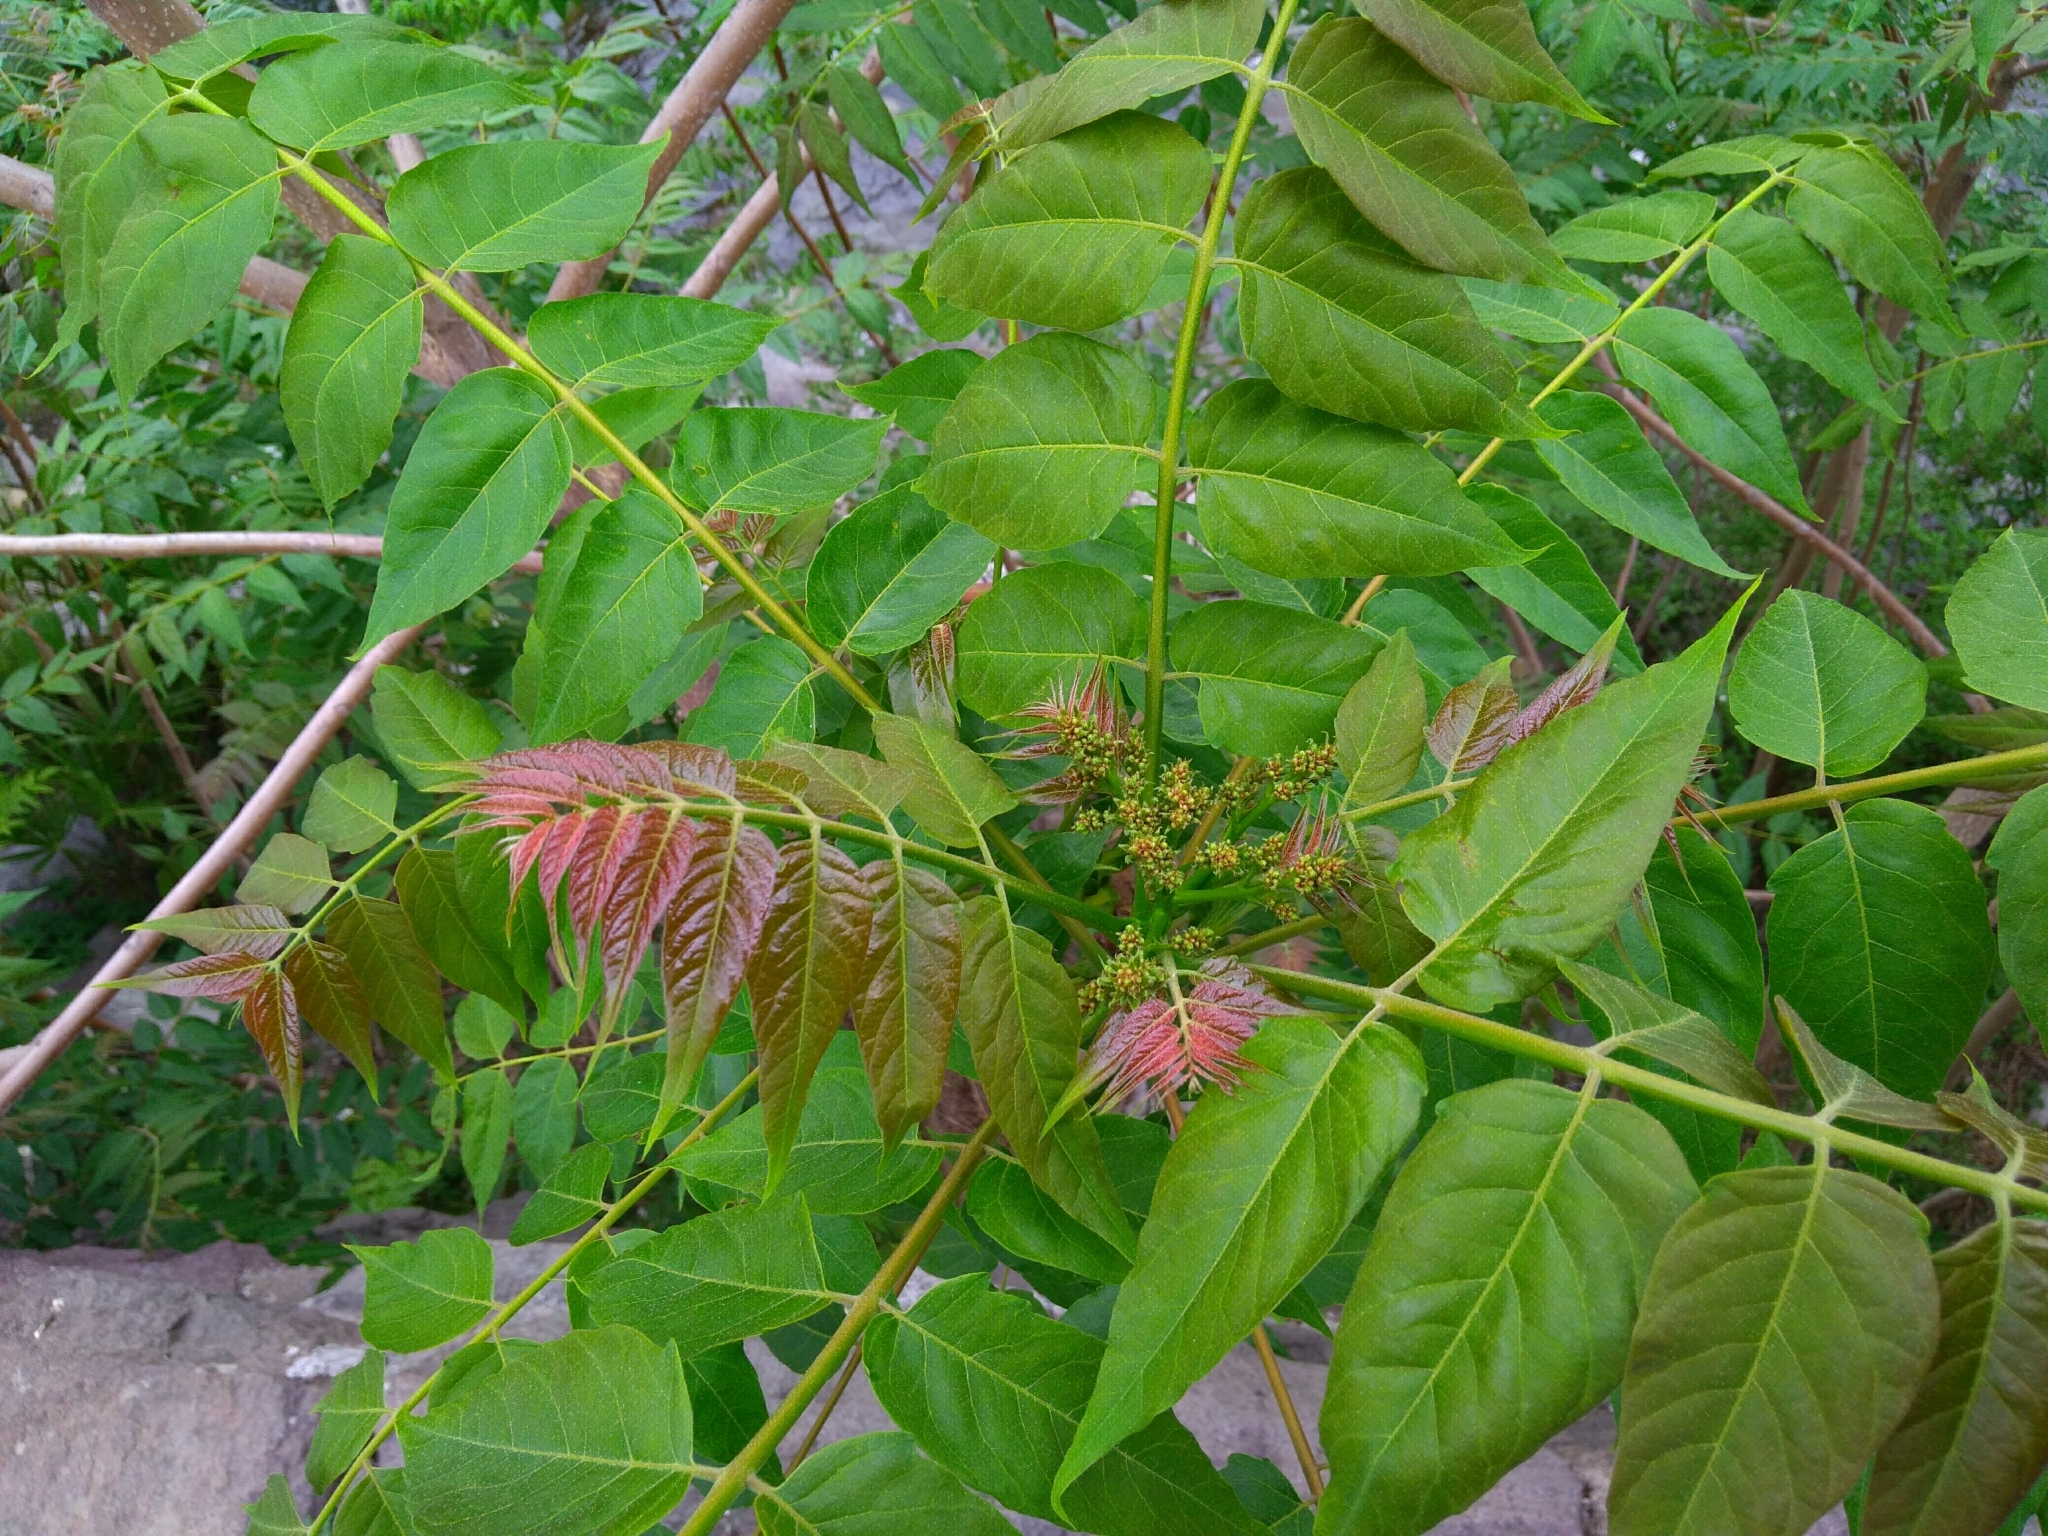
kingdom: Plantae
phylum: Tracheophyta
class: Magnoliopsida
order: Sapindales
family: Simaroubaceae
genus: Ailanthus
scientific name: Ailanthus altissima
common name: Tree-of-heaven
